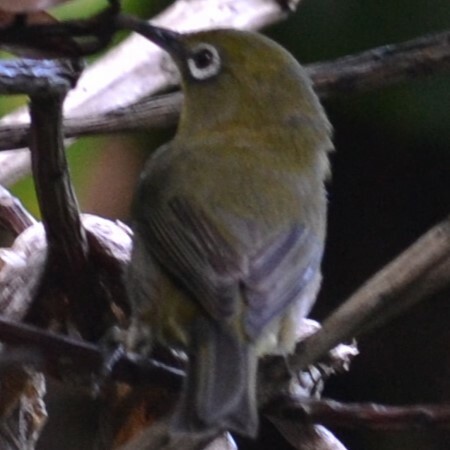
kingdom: Animalia
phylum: Chordata
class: Aves
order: Passeriformes
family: Zosteropidae
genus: Zosterops
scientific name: Zosterops japonicus
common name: Japanese white-eye
